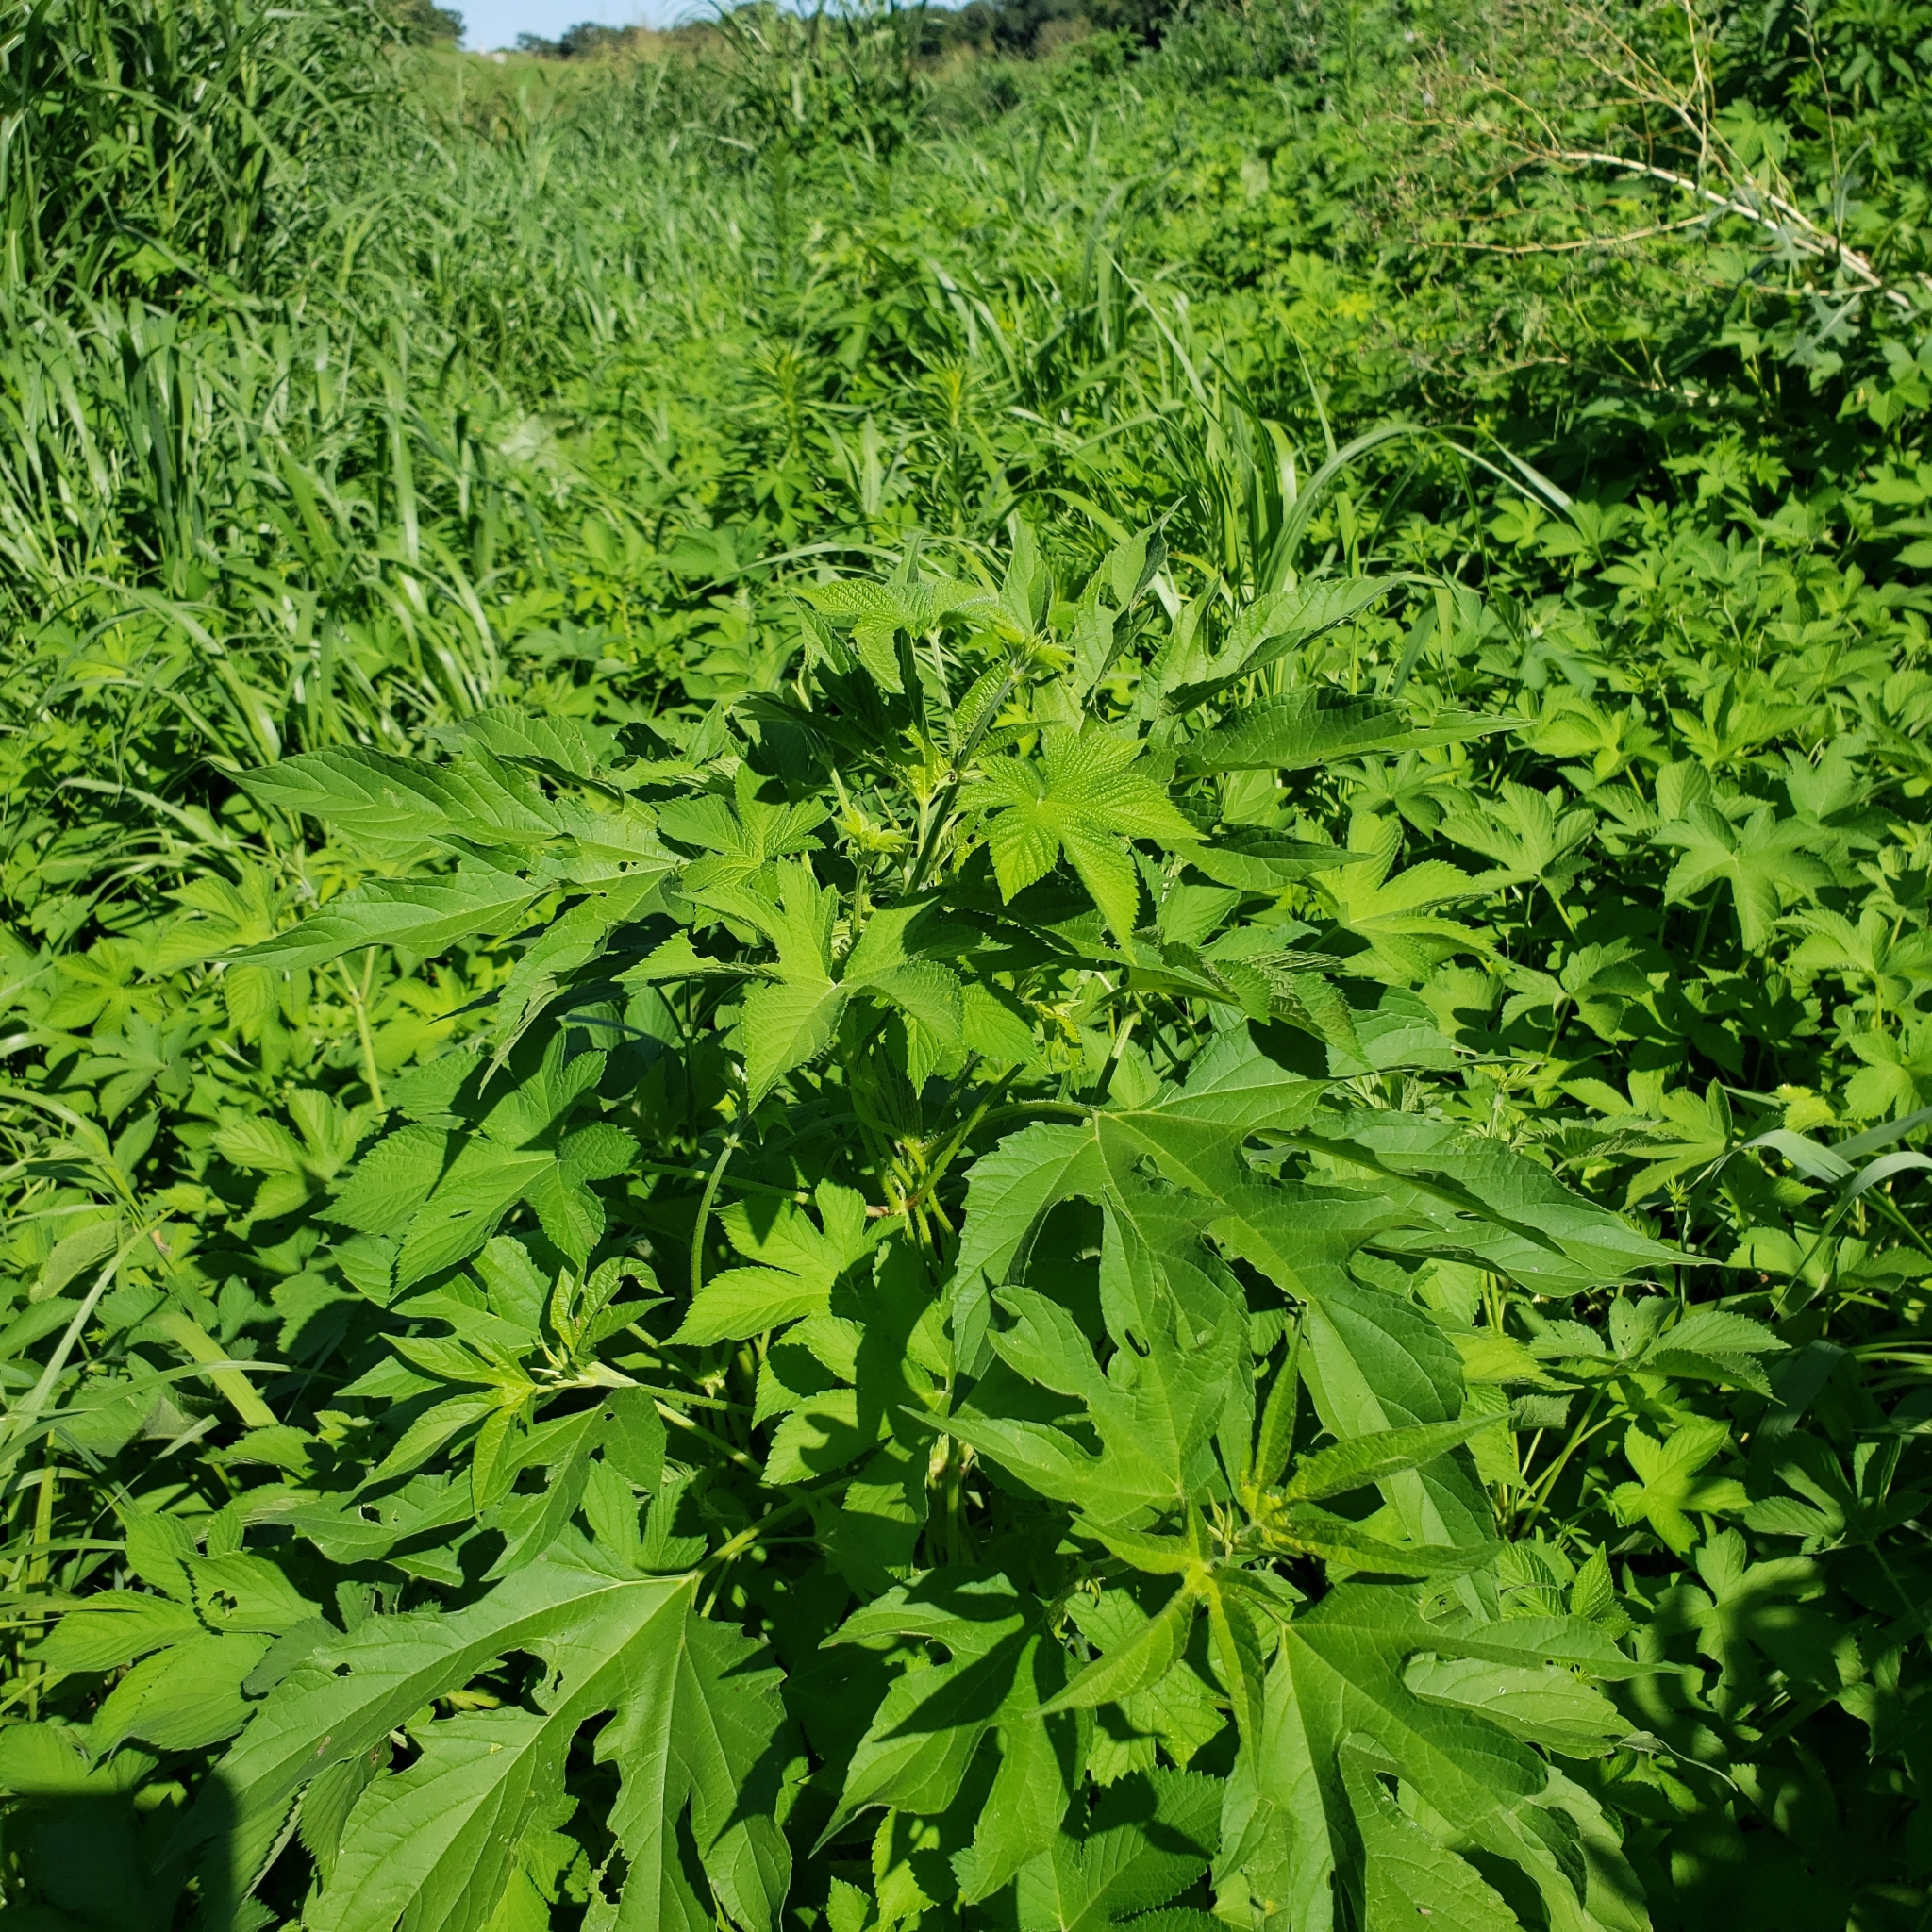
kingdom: Plantae
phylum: Tracheophyta
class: Magnoliopsida
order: Rosales
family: Cannabaceae
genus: Humulus
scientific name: Humulus scandens
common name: Japanese hop
